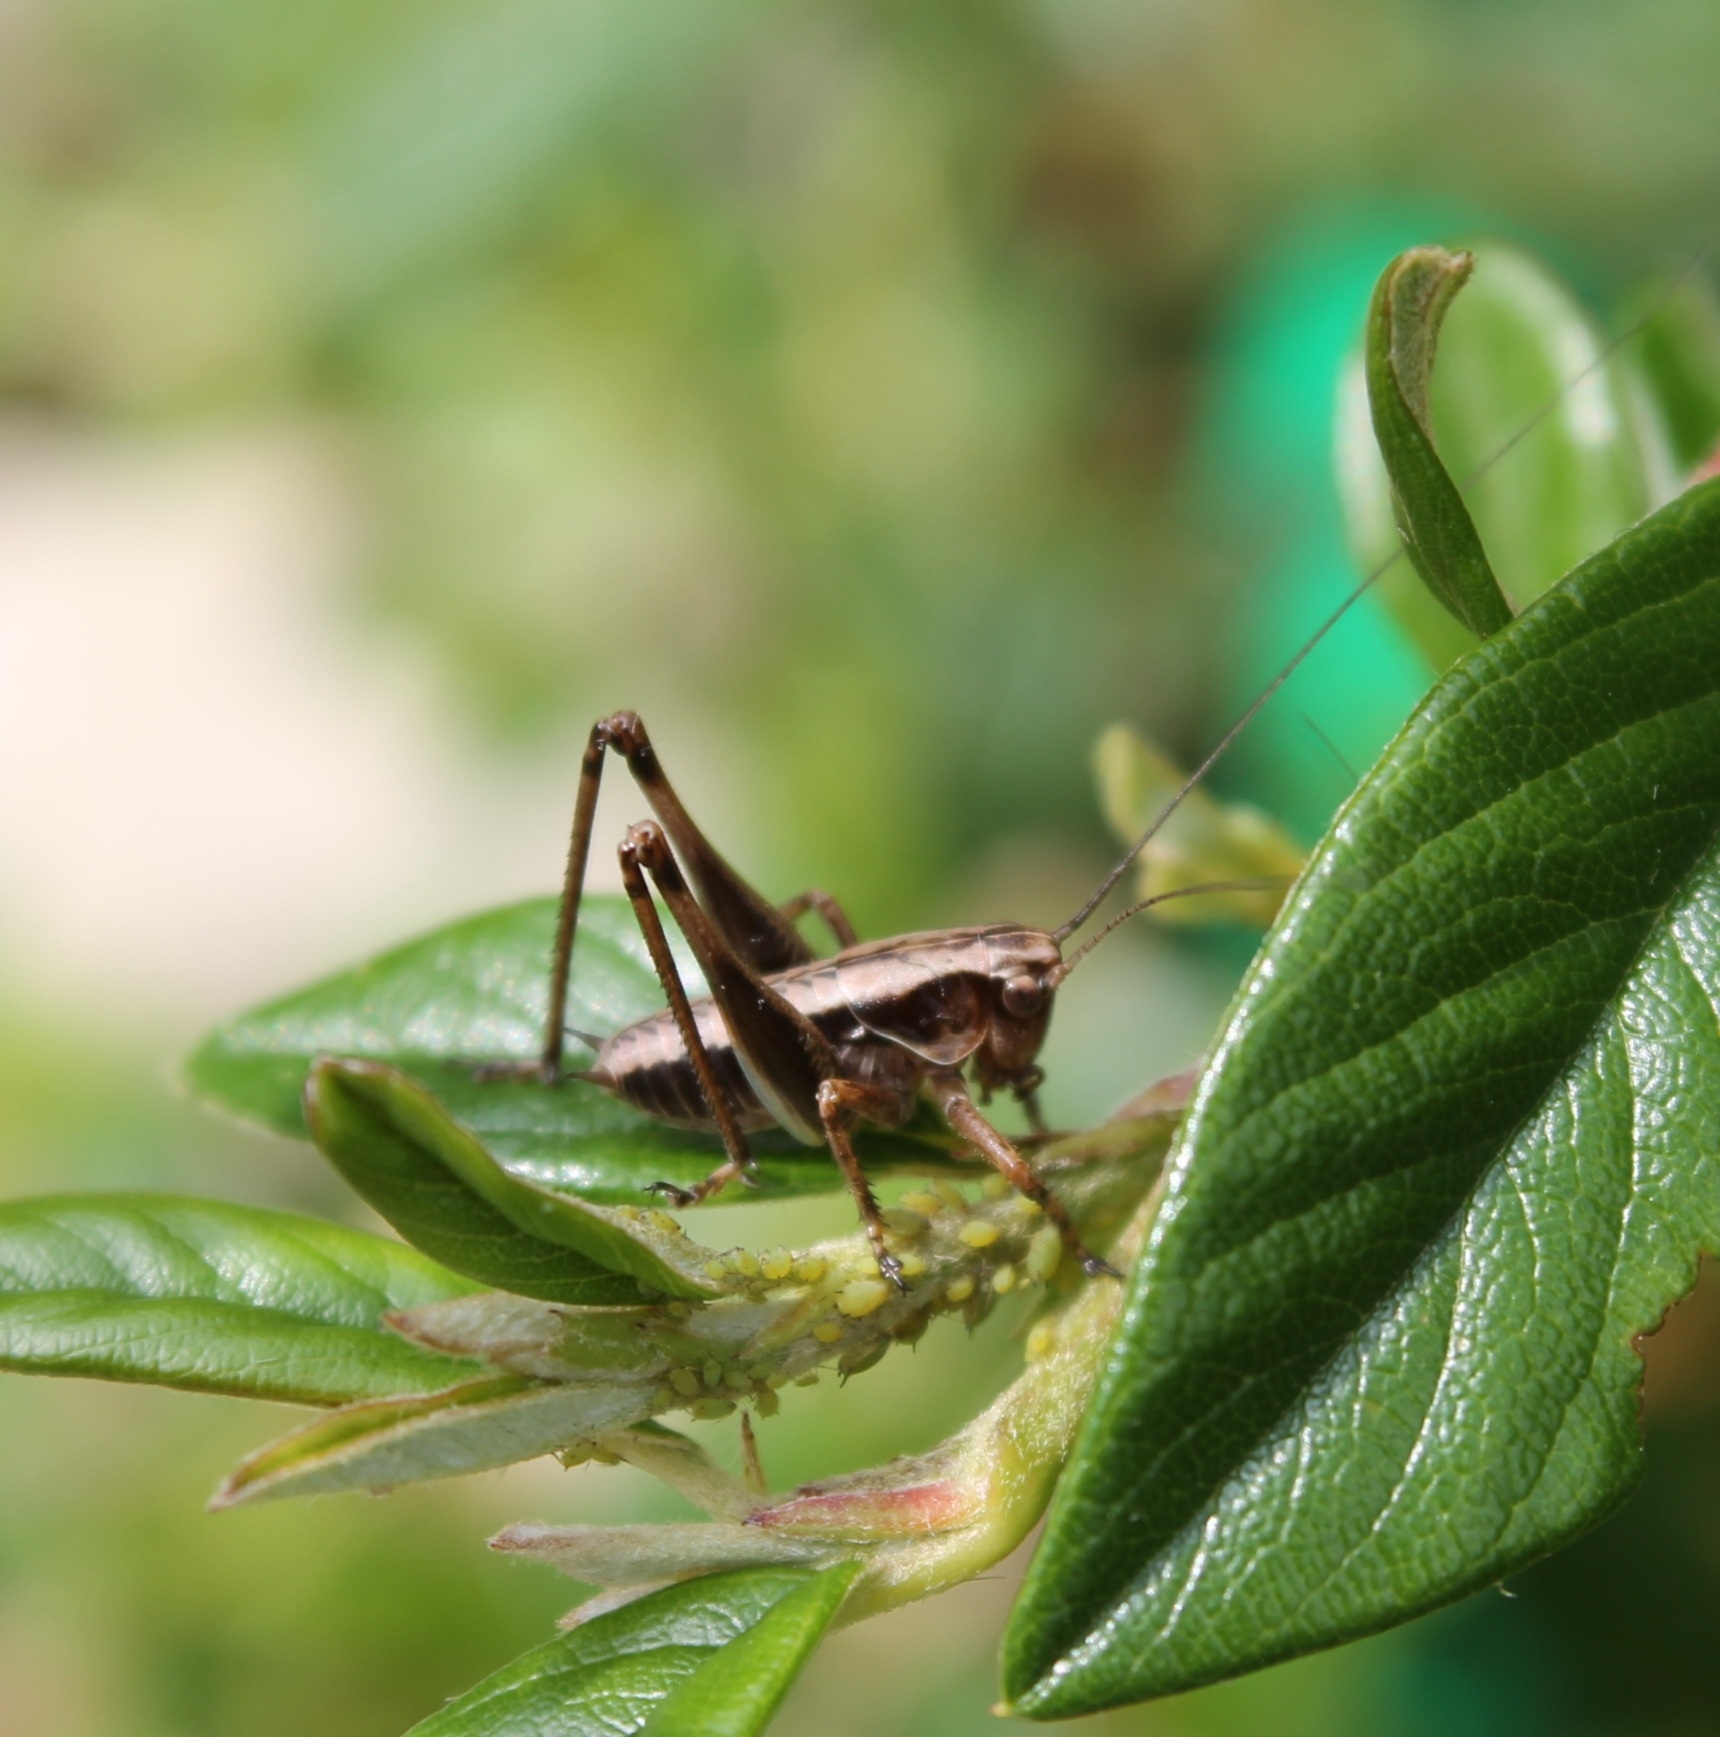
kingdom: Animalia
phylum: Arthropoda
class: Insecta
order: Orthoptera
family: Tettigoniidae
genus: Pholidoptera
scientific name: Pholidoptera griseoaptera
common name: Dark bush-cricket
